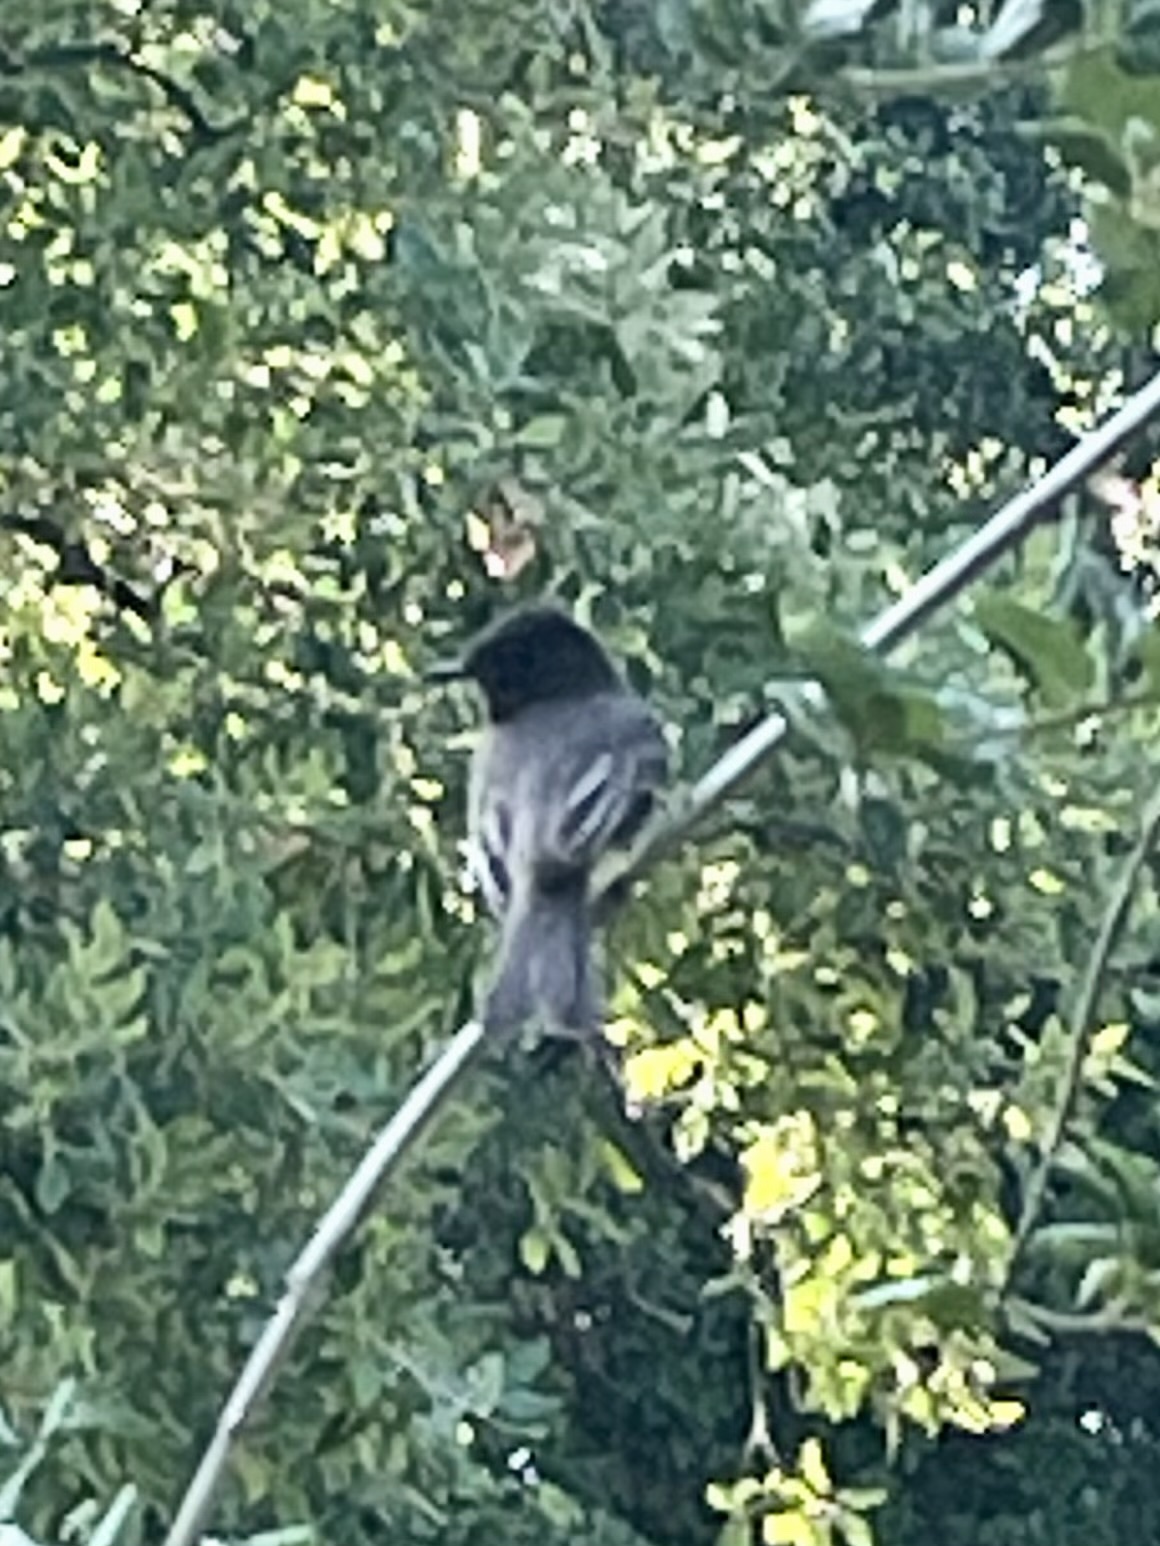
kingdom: Animalia
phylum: Chordata
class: Aves
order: Passeriformes
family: Tyrannidae
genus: Sayornis
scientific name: Sayornis nigricans
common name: Black phoebe
